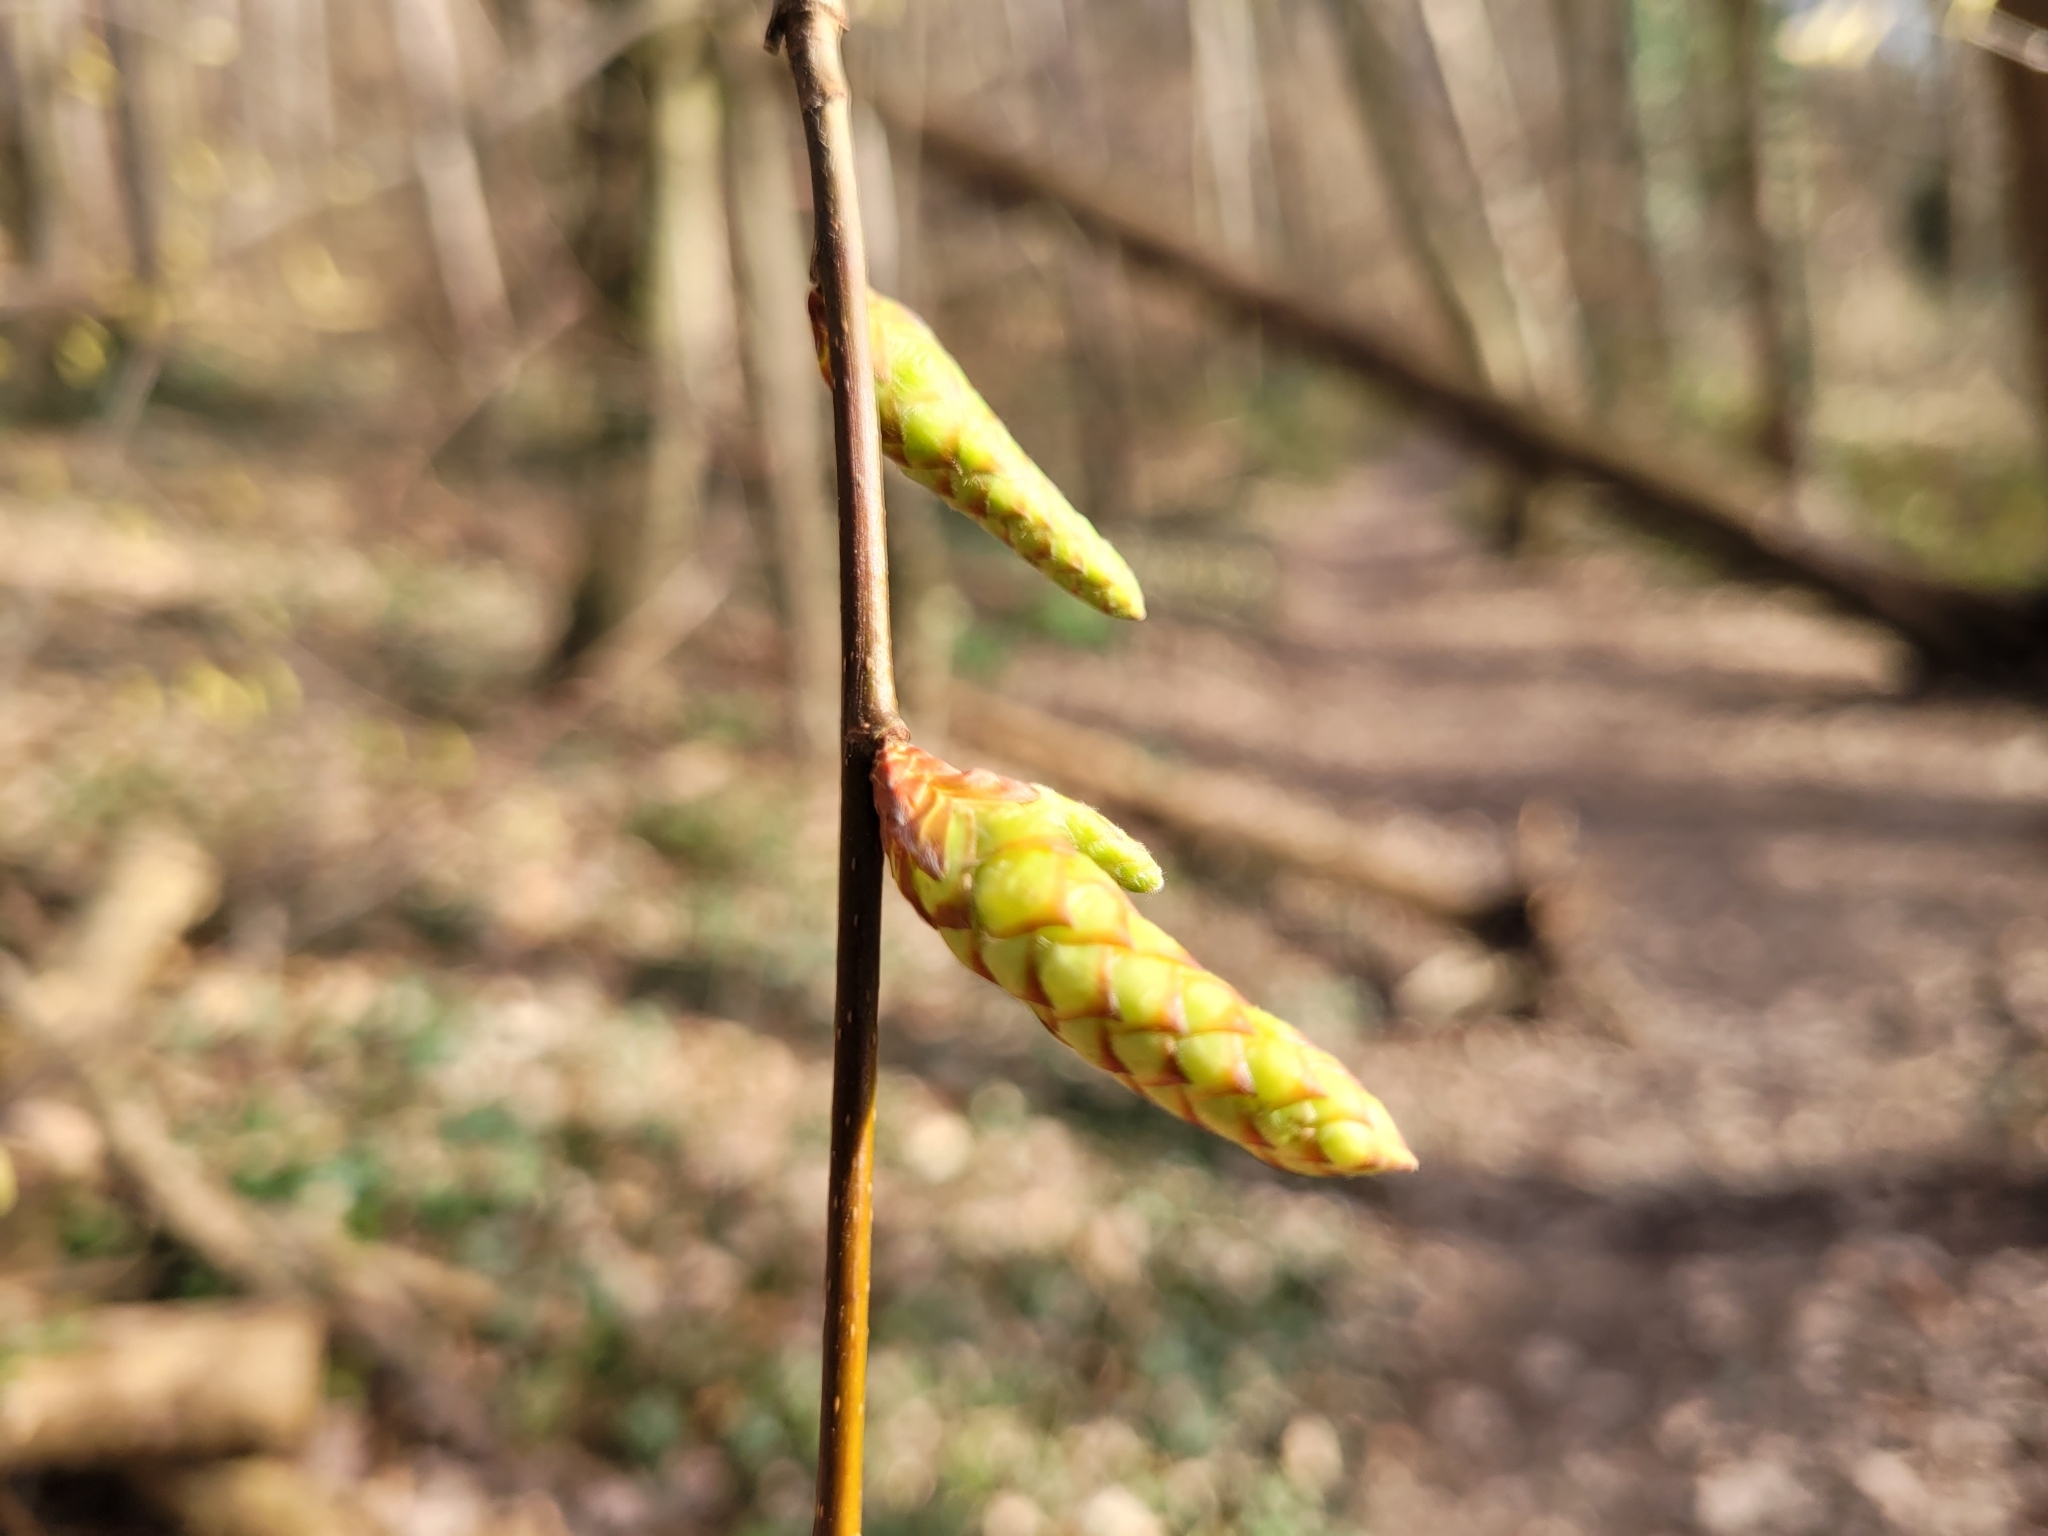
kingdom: Plantae
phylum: Tracheophyta
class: Magnoliopsida
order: Fagales
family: Betulaceae
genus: Carpinus
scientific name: Carpinus betulus
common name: Hornbeam
